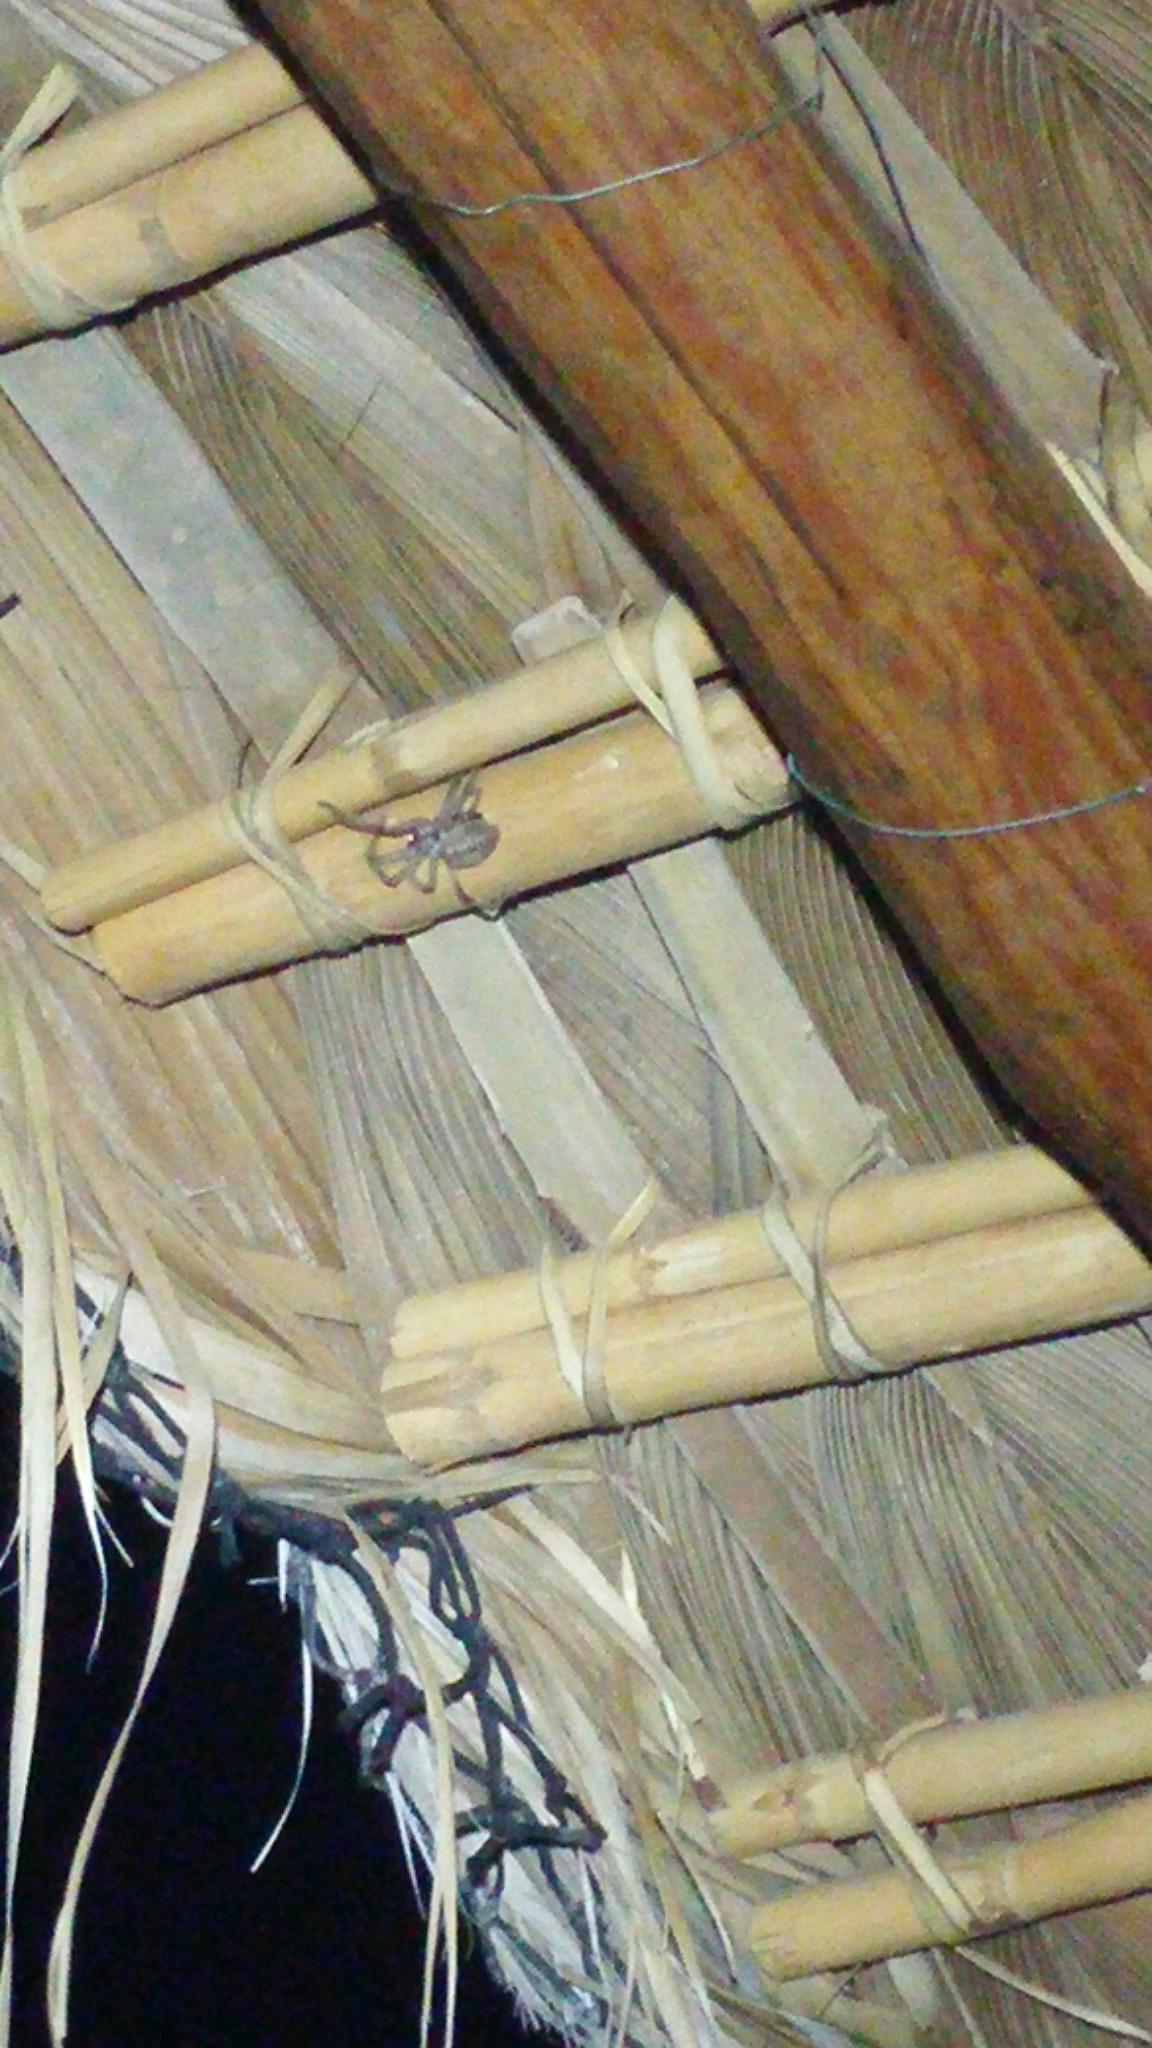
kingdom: Animalia
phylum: Arthropoda
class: Arachnida
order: Araneae
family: Sparassidae
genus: Olios
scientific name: Olios giganteus
